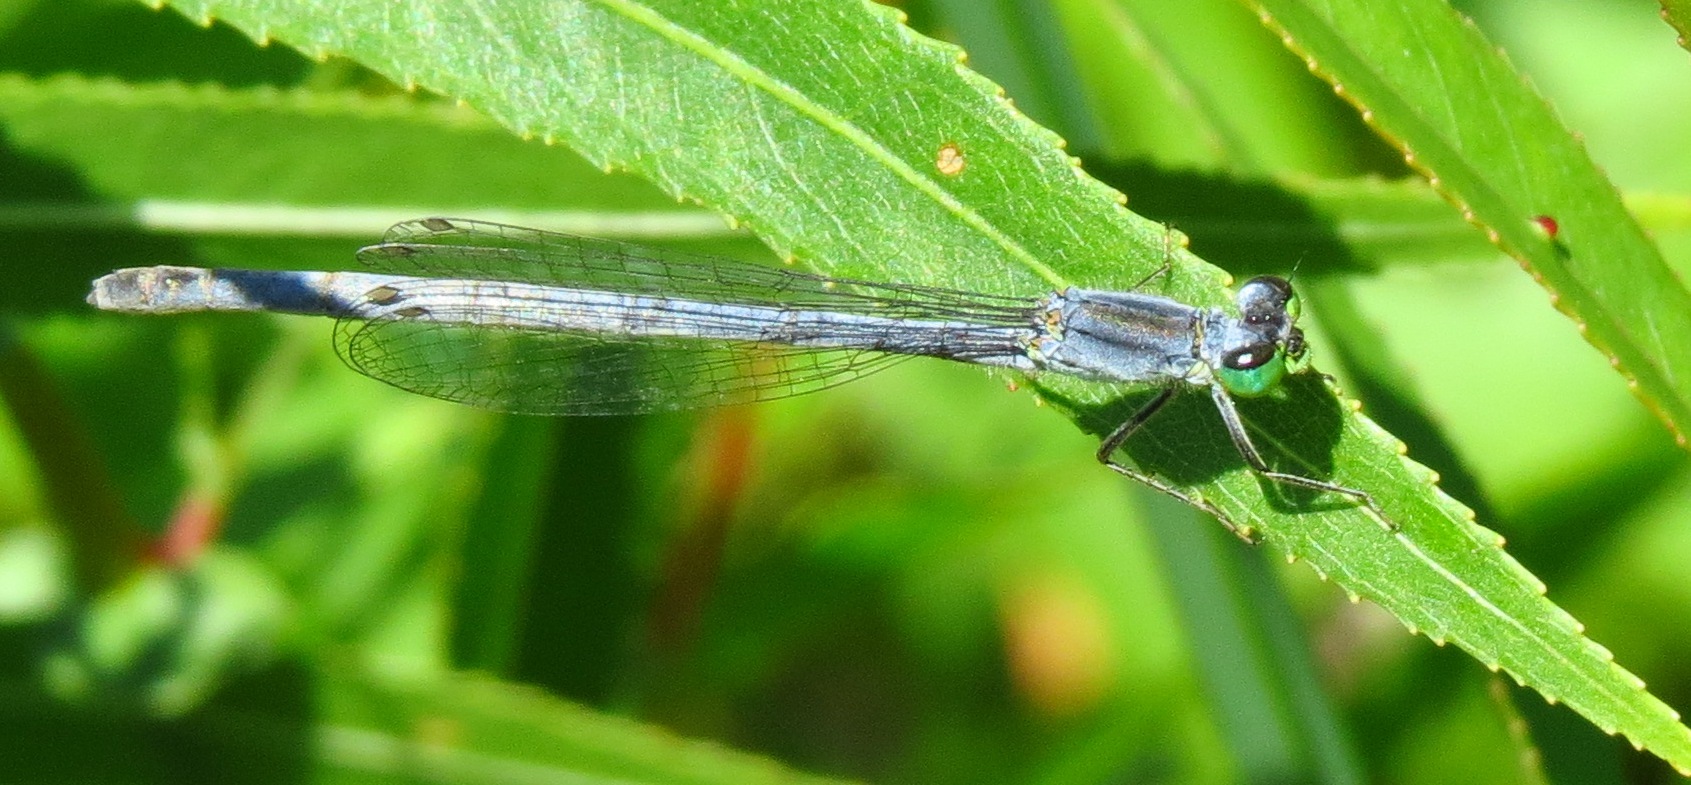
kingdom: Animalia
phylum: Arthropoda
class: Insecta
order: Odonata
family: Coenagrionidae
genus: Ischnura
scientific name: Ischnura verticalis
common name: Eastern forktail
